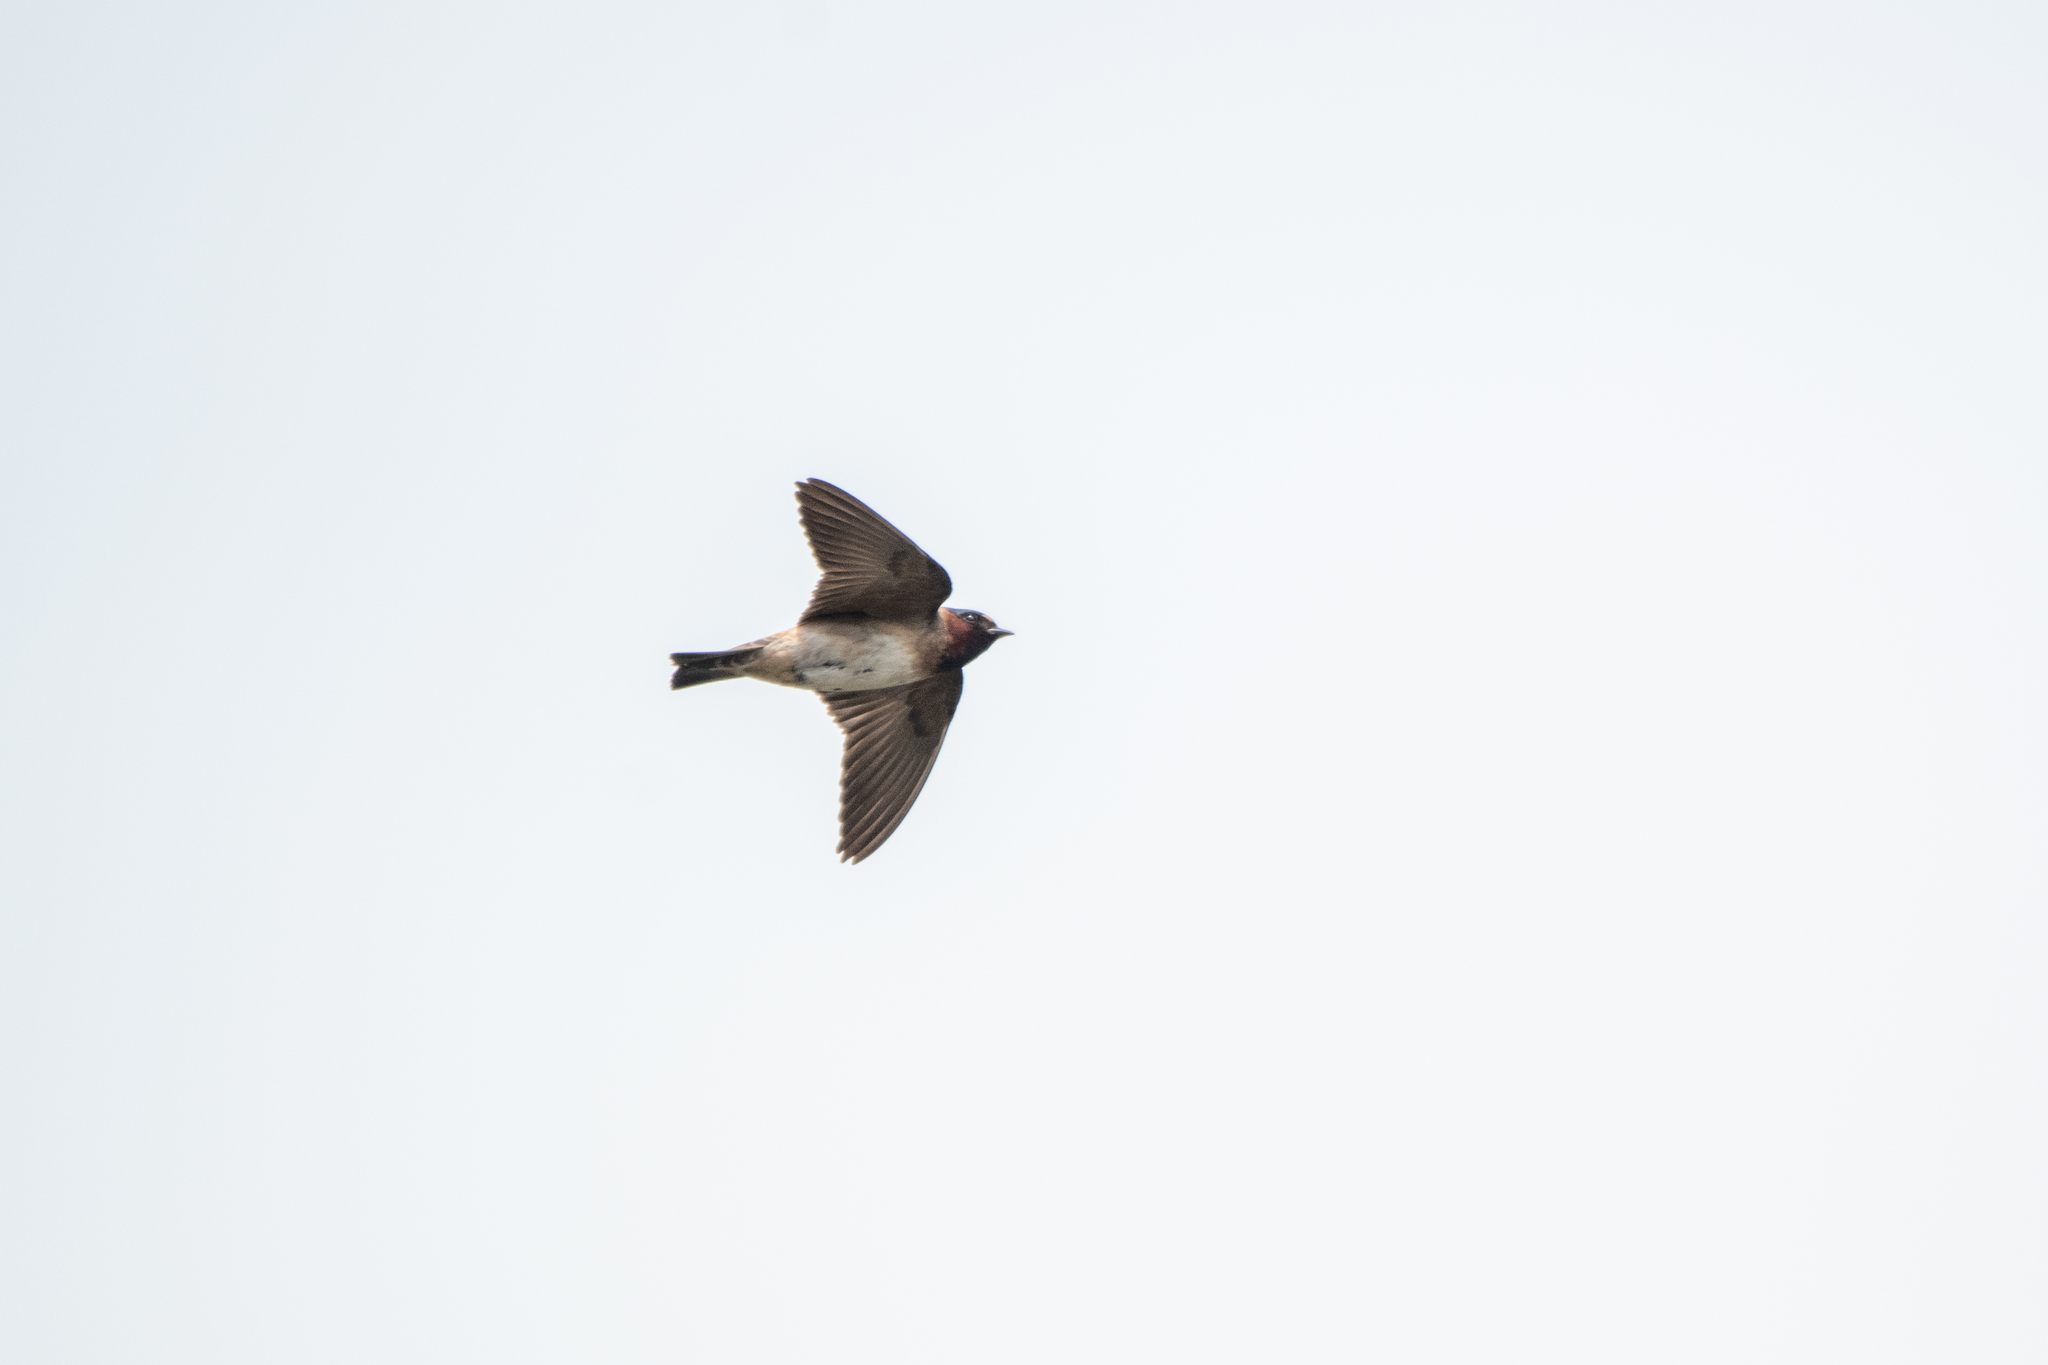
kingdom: Animalia
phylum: Chordata
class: Aves
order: Passeriformes
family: Hirundinidae
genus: Petrochelidon
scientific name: Petrochelidon pyrrhonota
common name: American cliff swallow
